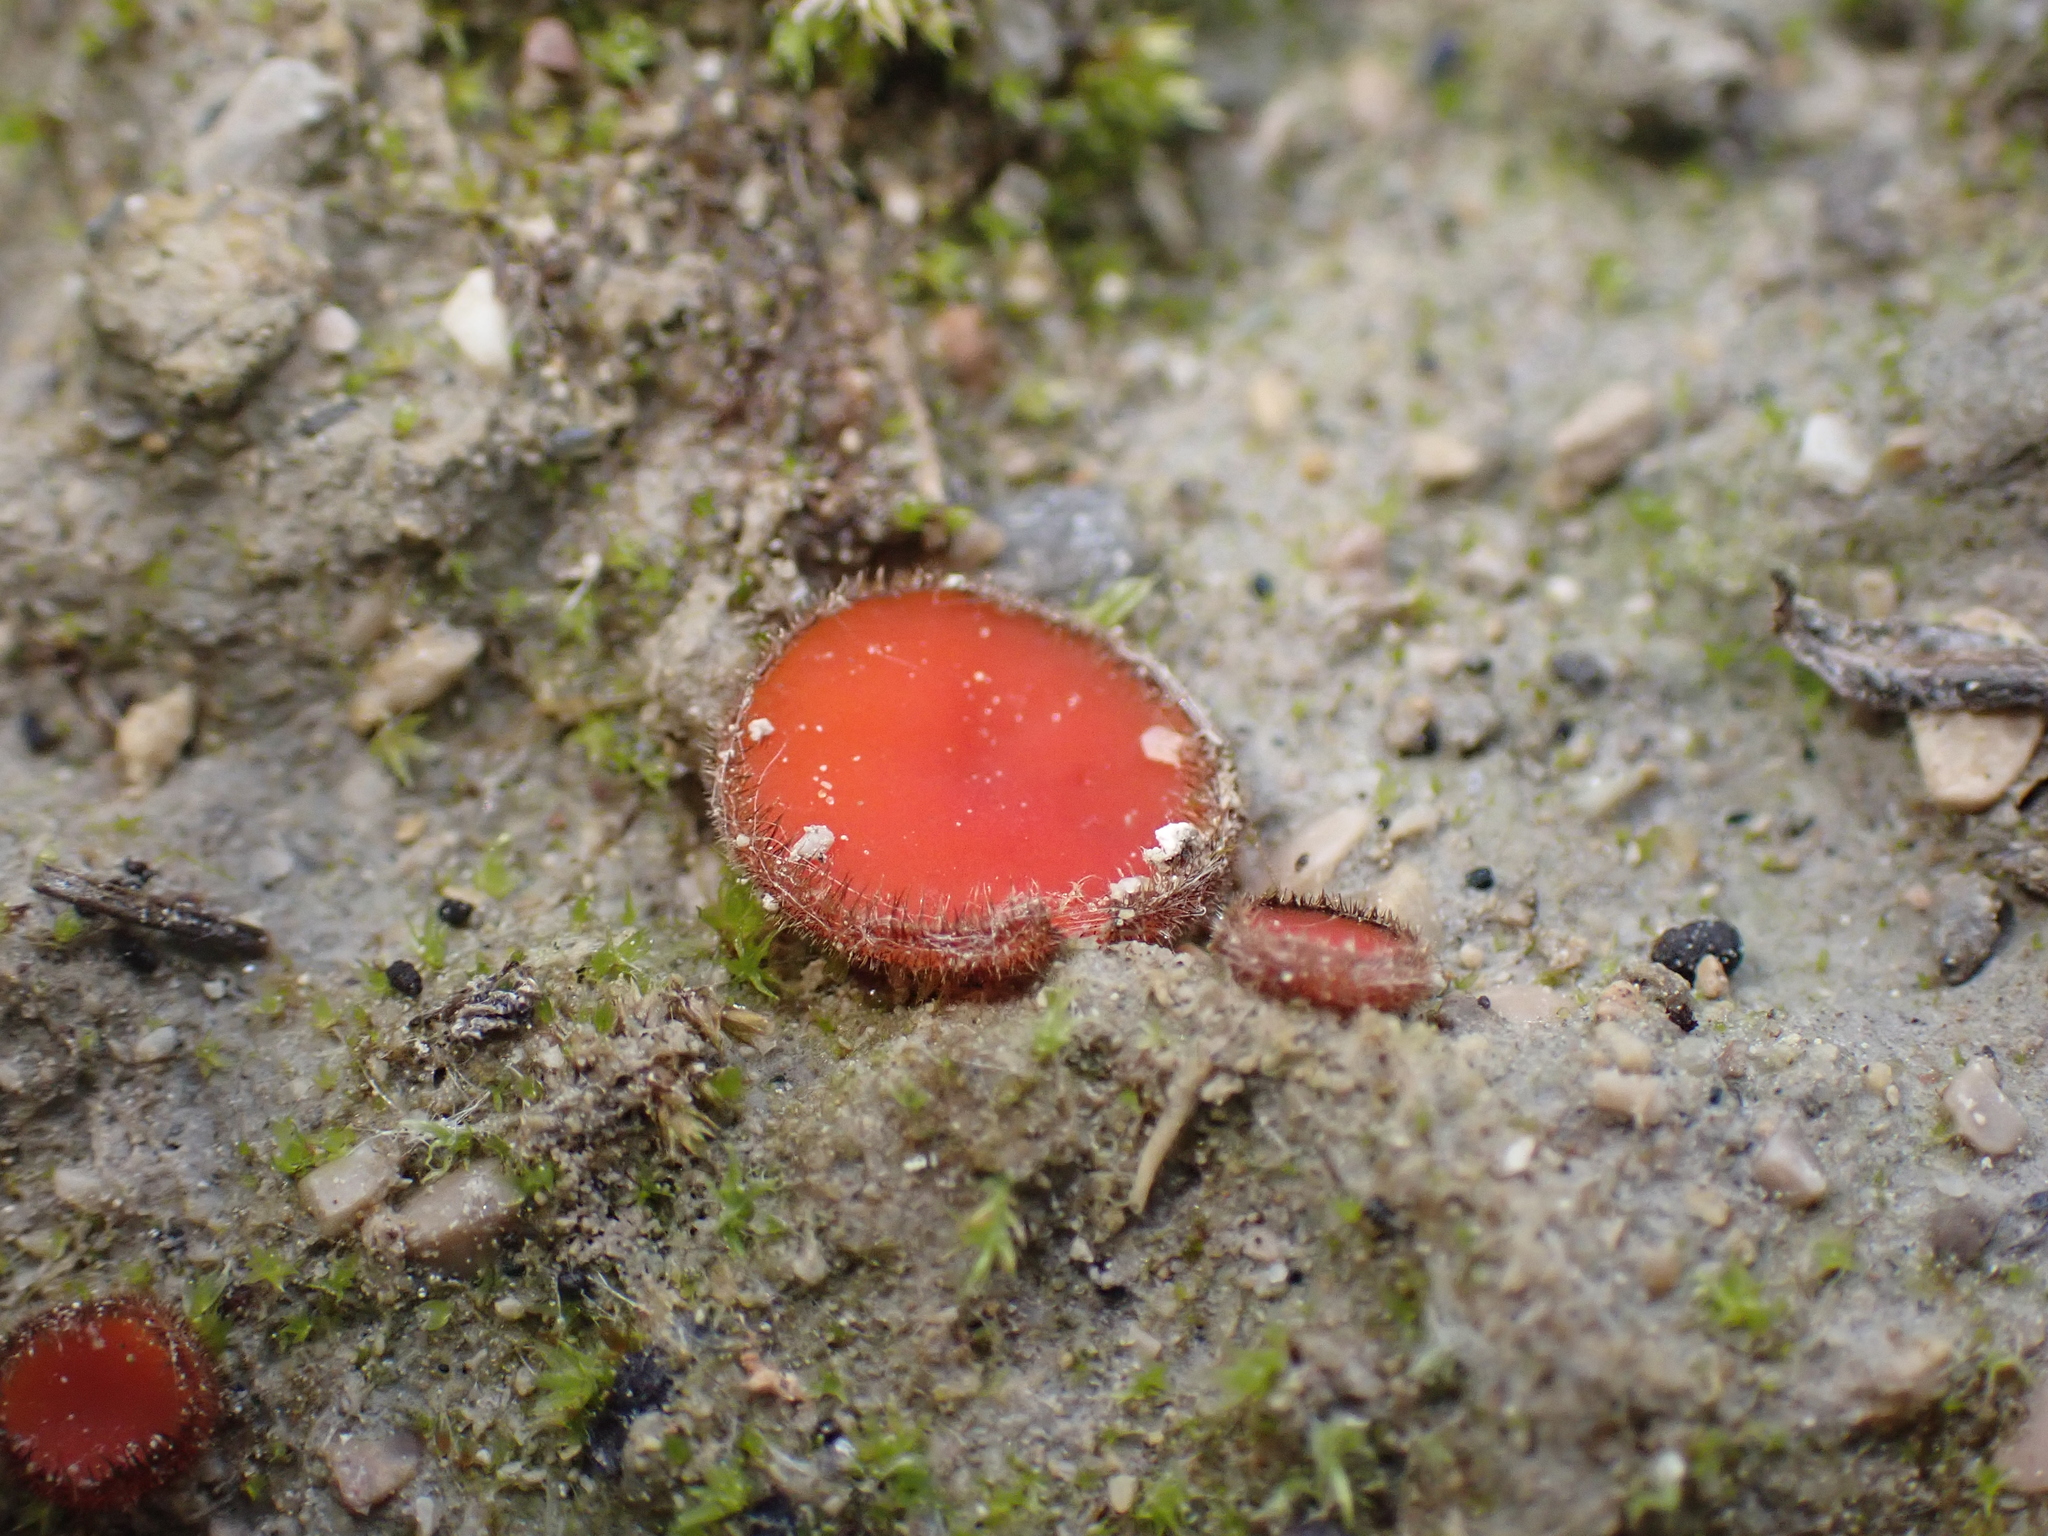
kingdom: Fungi
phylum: Ascomycota
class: Pezizomycetes
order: Pezizales
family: Pyronemataceae
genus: Scutellinia
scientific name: Scutellinia
